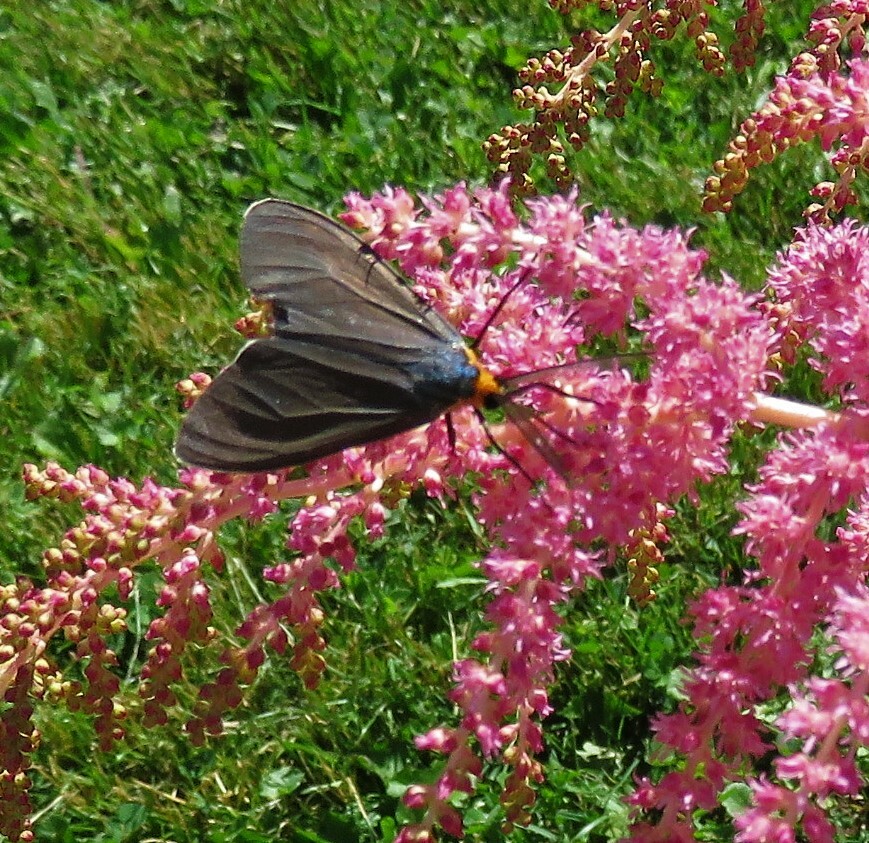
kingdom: Animalia
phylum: Arthropoda
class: Insecta
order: Lepidoptera
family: Erebidae
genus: Ctenucha
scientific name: Ctenucha virginica
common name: Virginia ctenucha moth
